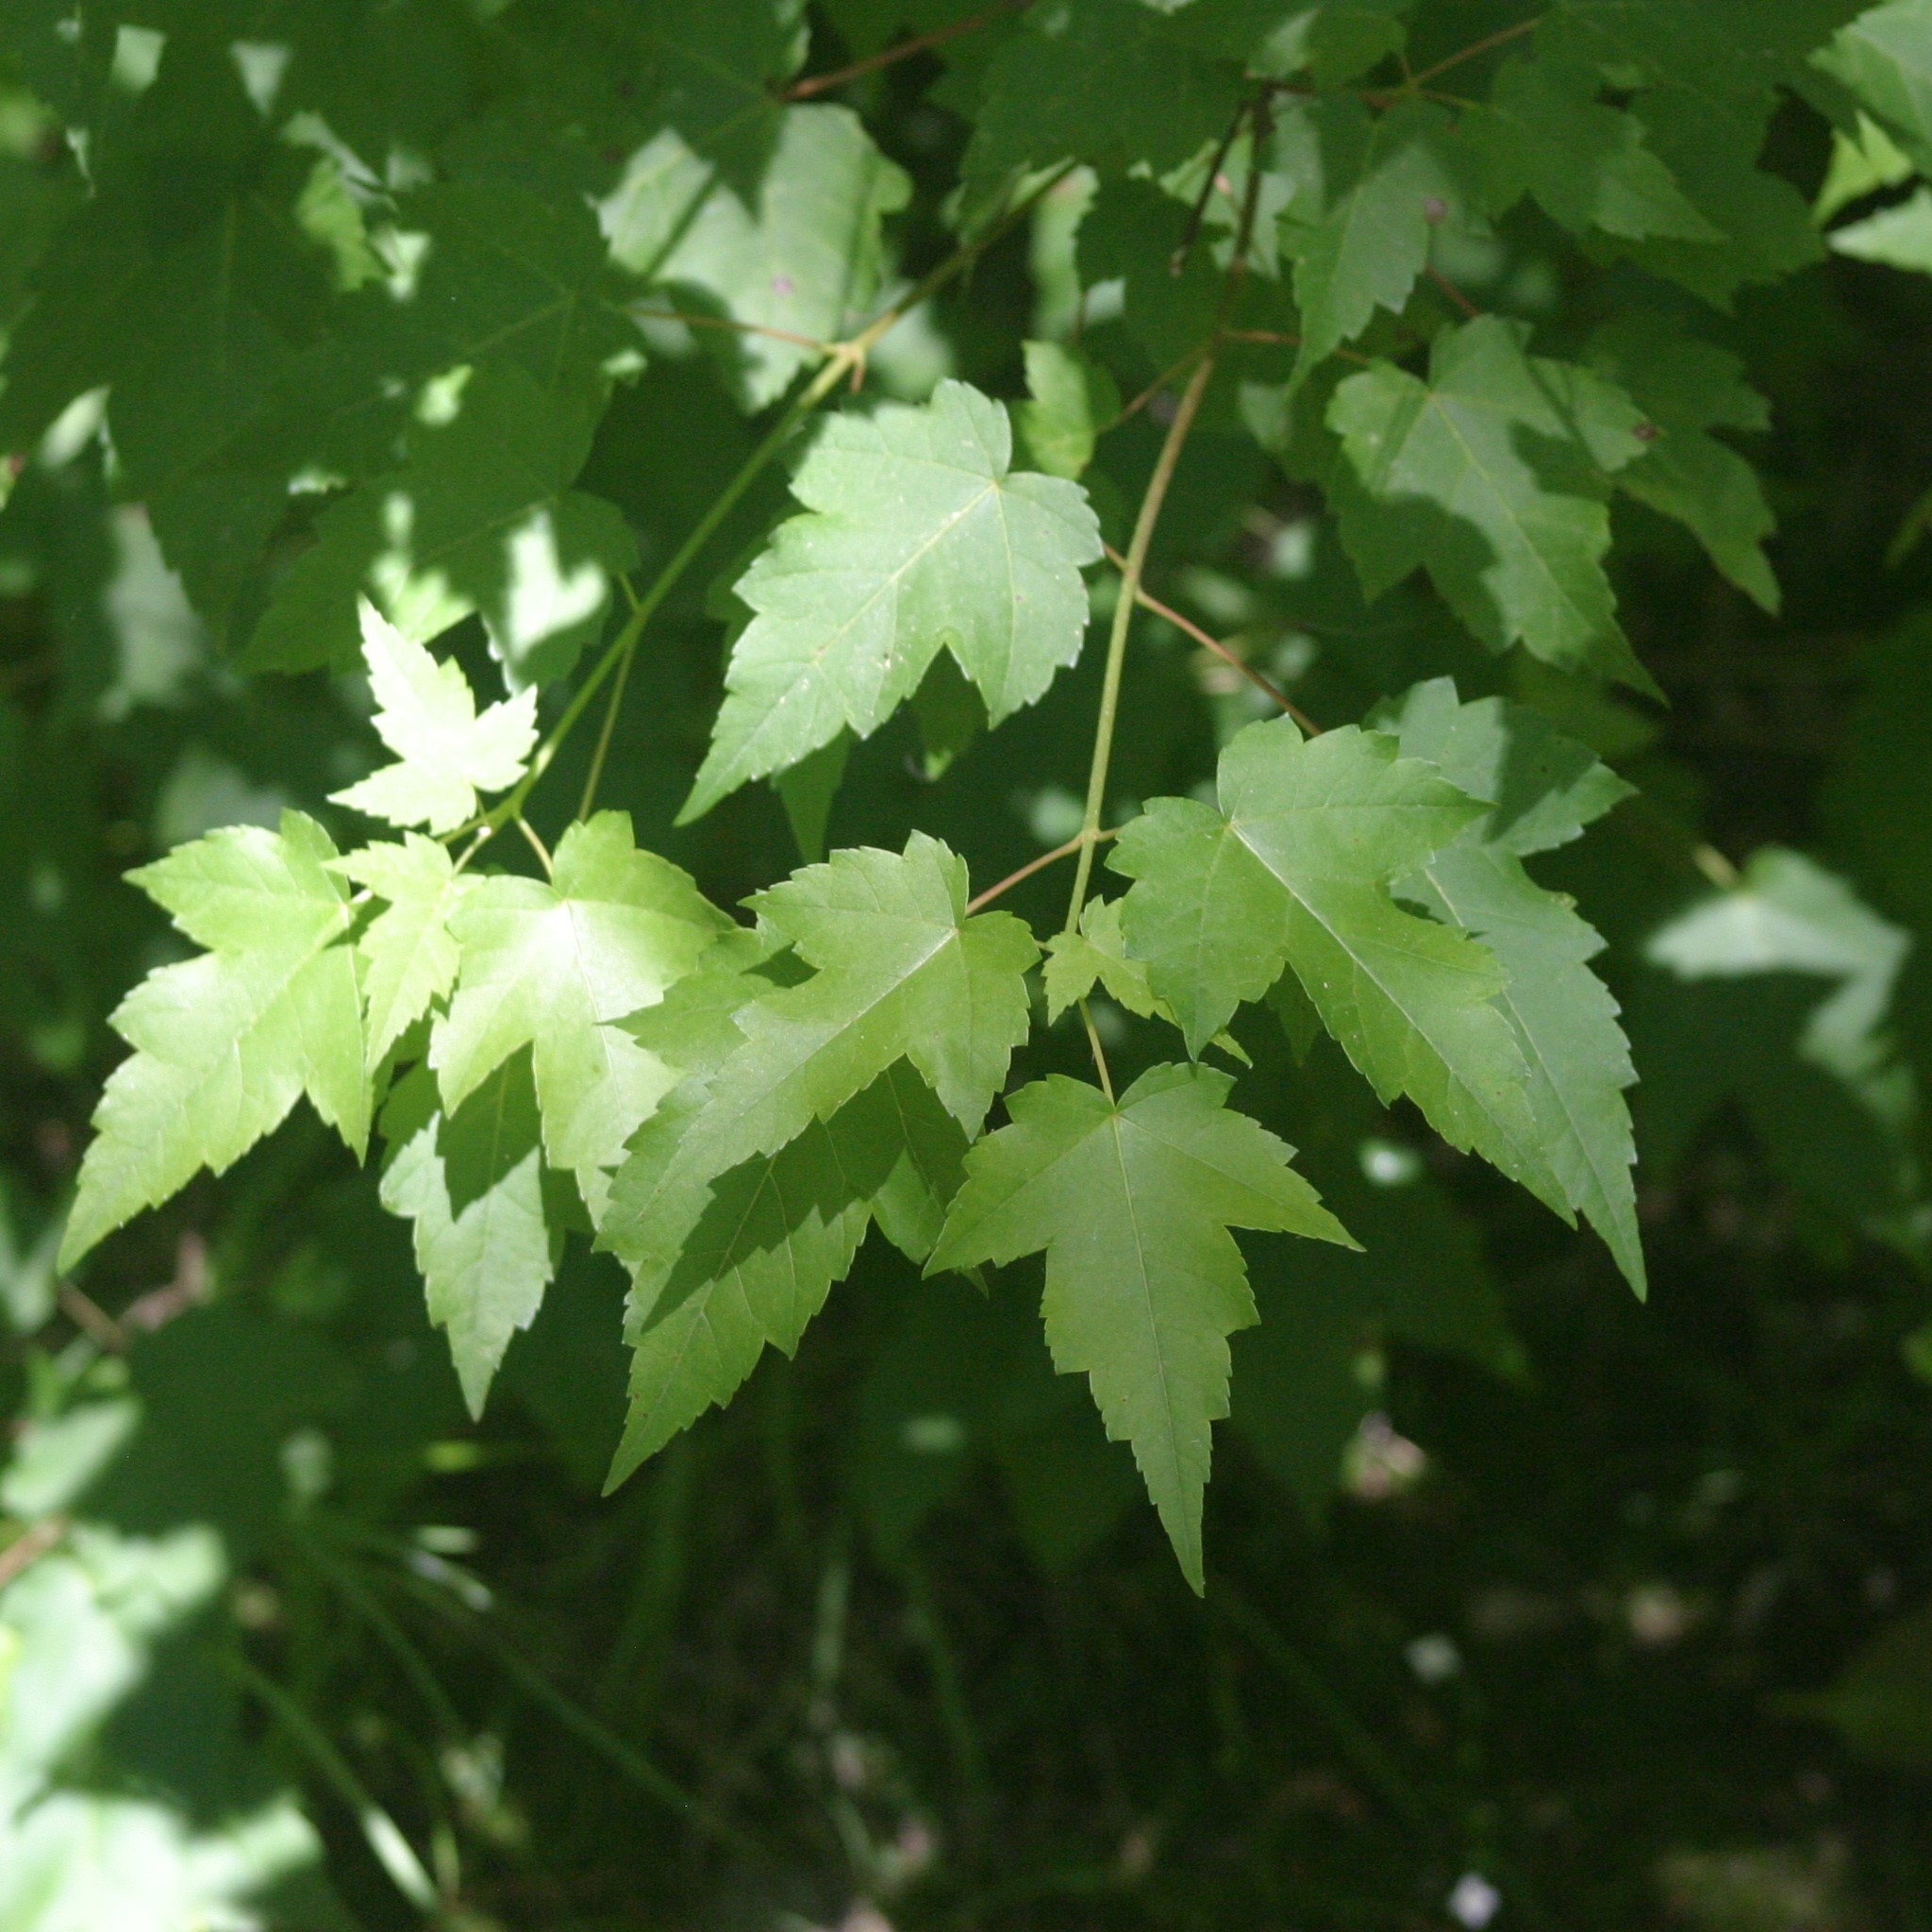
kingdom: Plantae
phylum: Tracheophyta
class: Magnoliopsida
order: Sapindales
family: Sapindaceae
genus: Acer
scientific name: Acer rubrum
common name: Red maple
